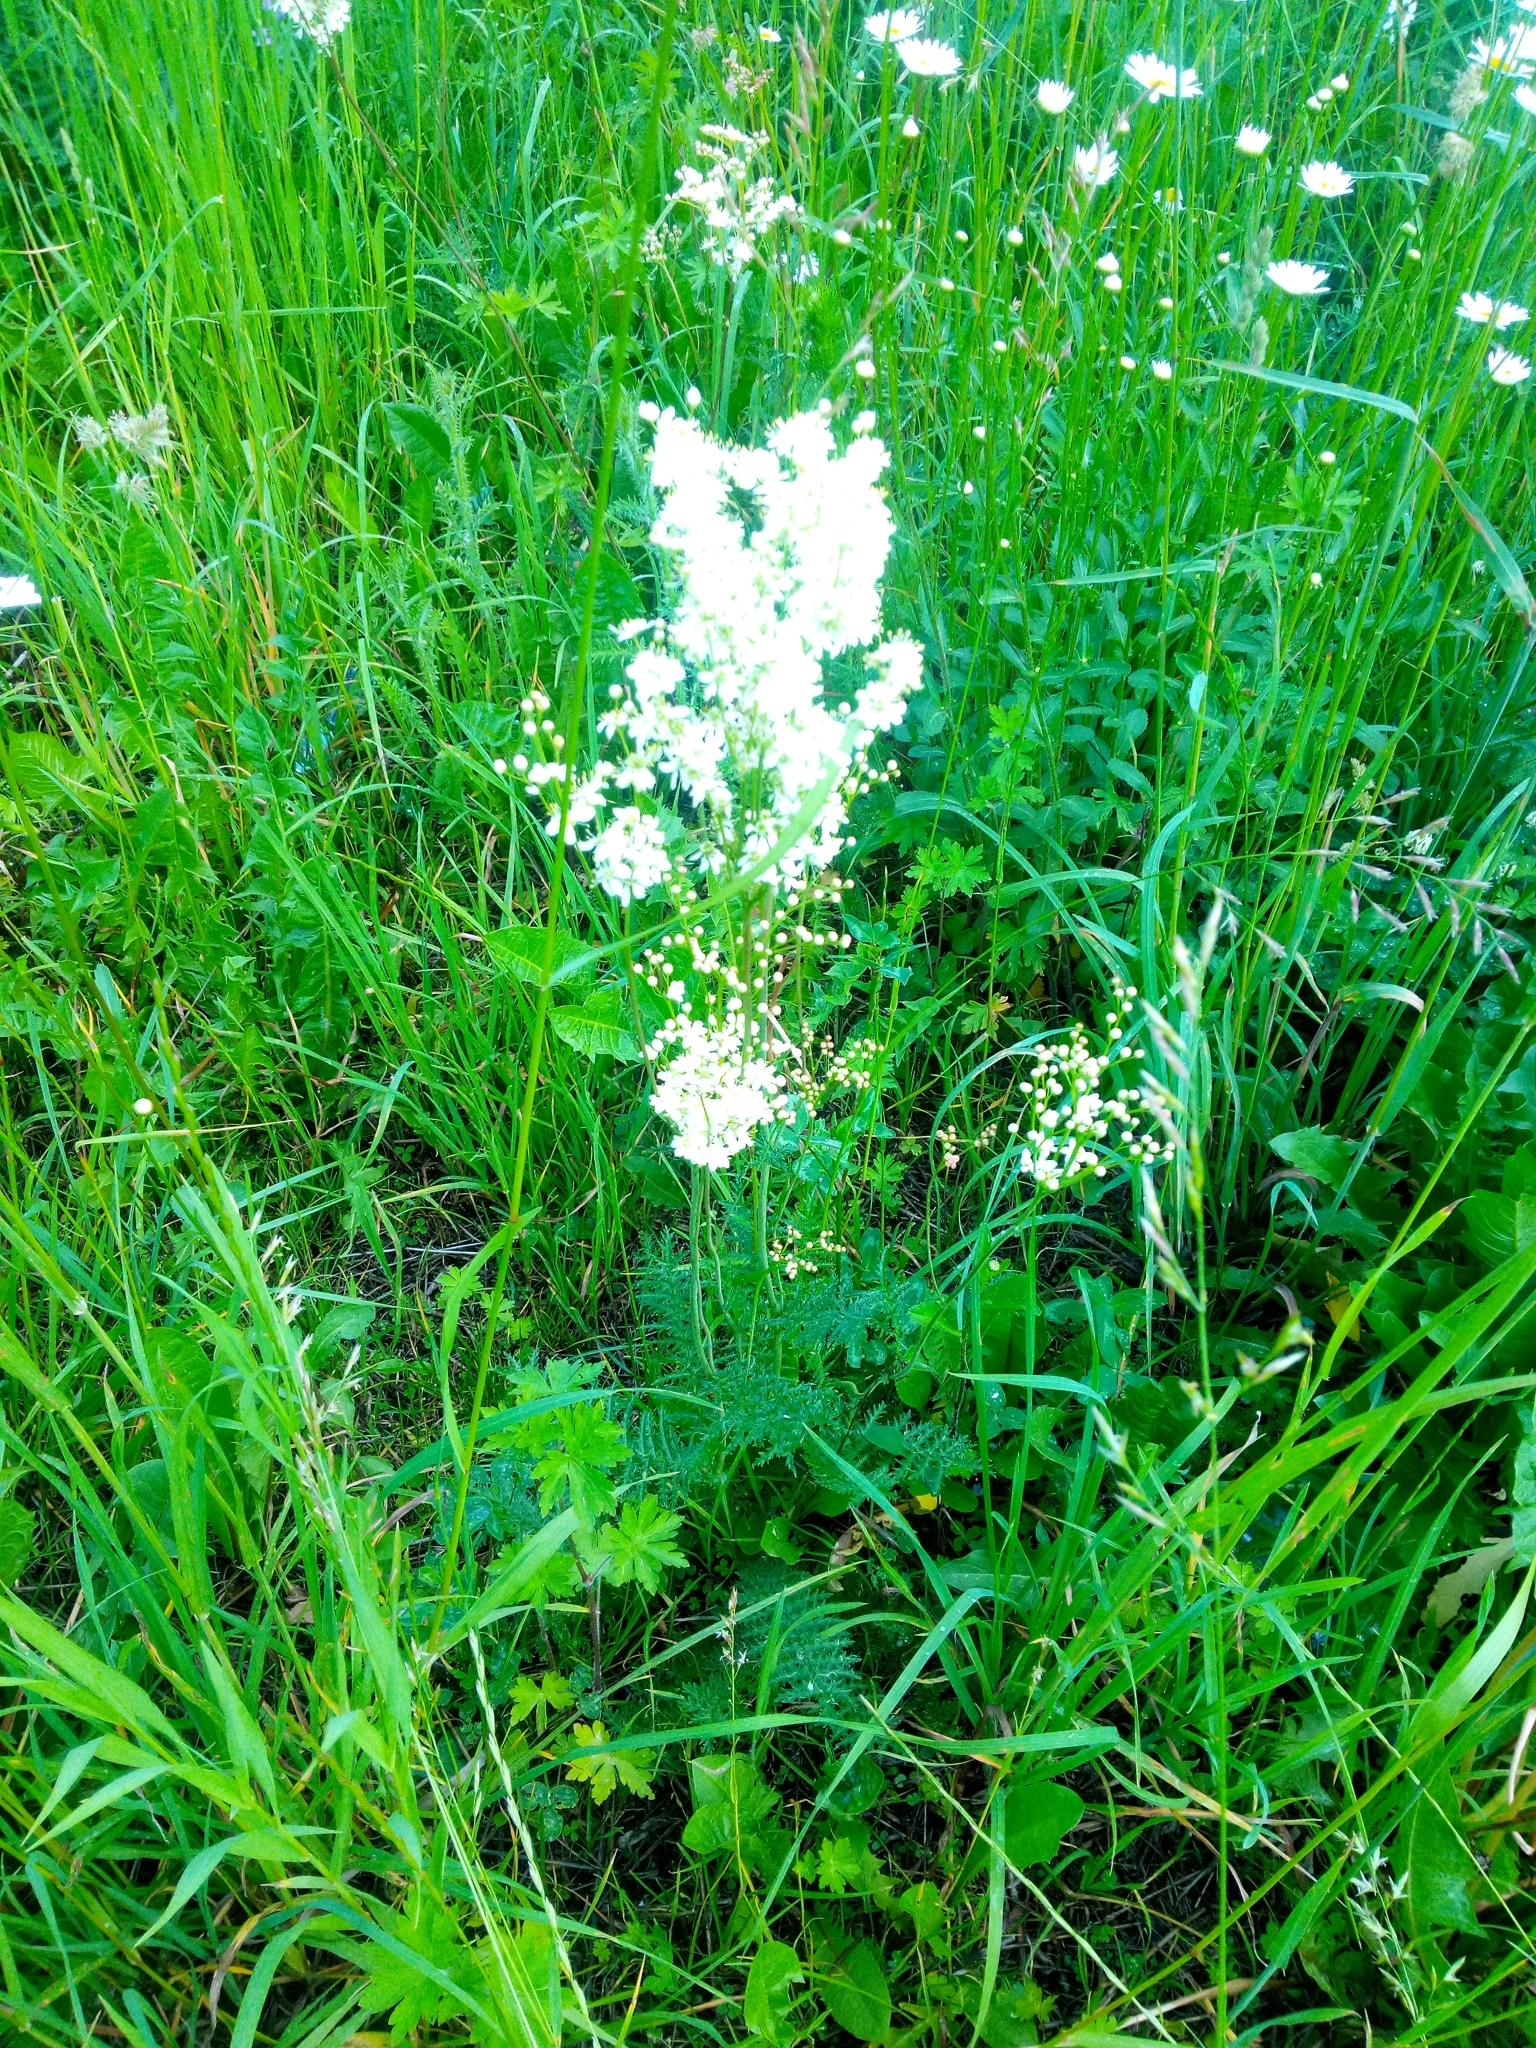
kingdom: Plantae
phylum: Tracheophyta
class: Magnoliopsida
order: Rosales
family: Rosaceae
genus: Filipendula
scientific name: Filipendula vulgaris
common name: Dropwort
